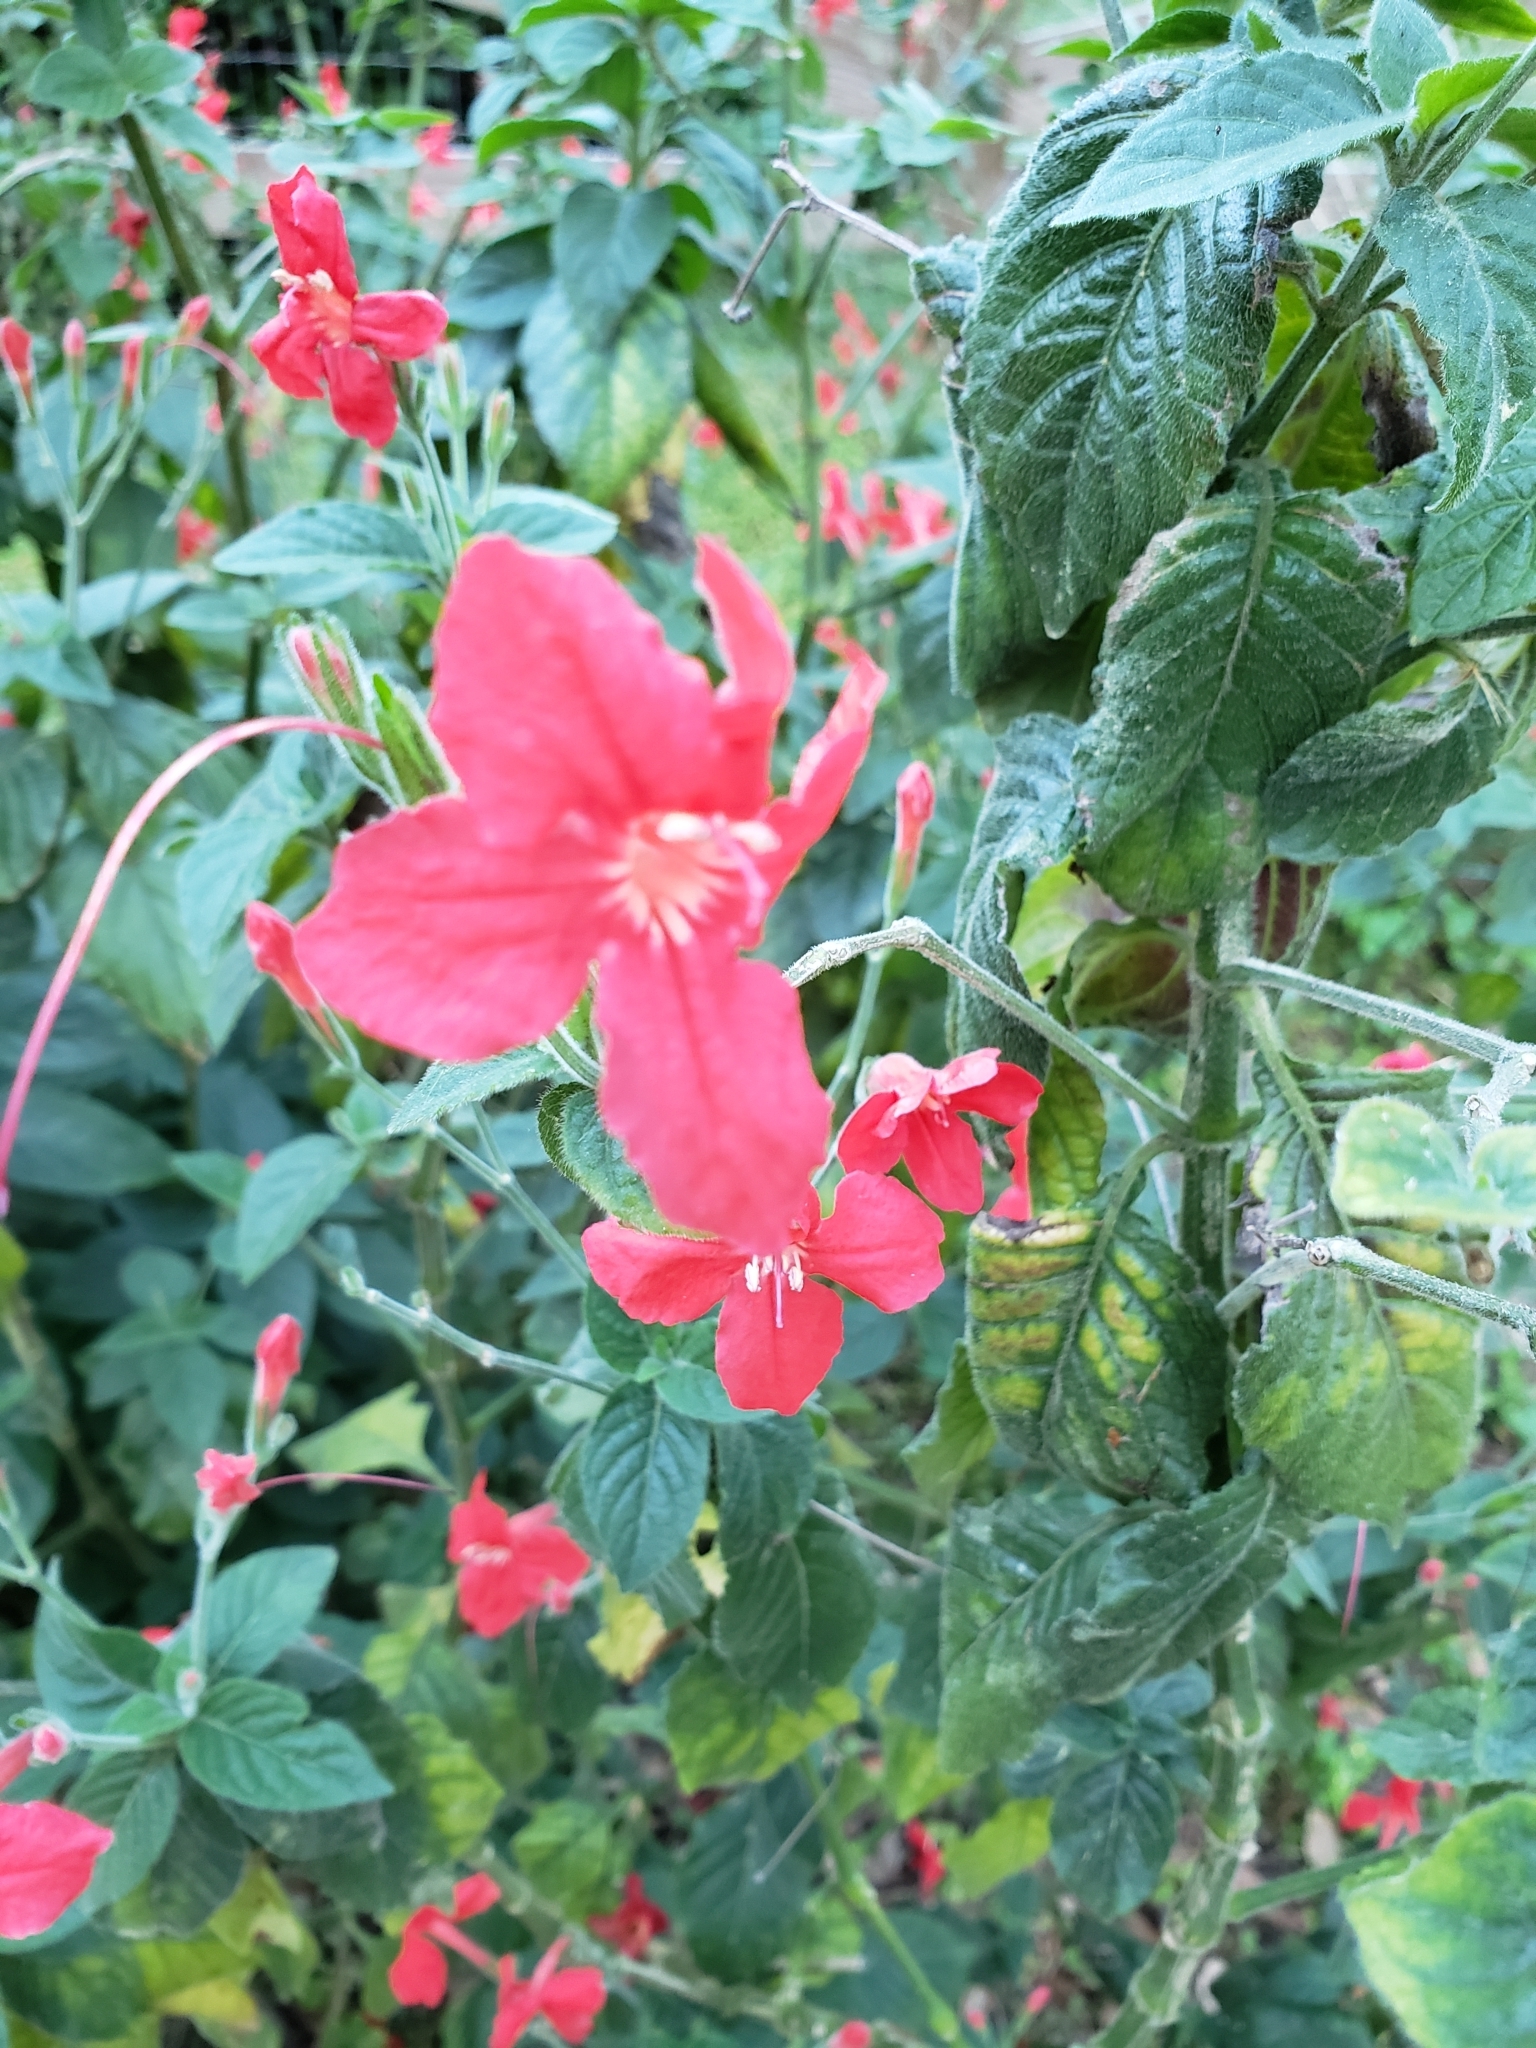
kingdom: Plantae
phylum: Tracheophyta
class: Magnoliopsida
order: Malvales
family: Malvaceae
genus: Malvaviscus
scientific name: Malvaviscus arboreus
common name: Wax mallow
